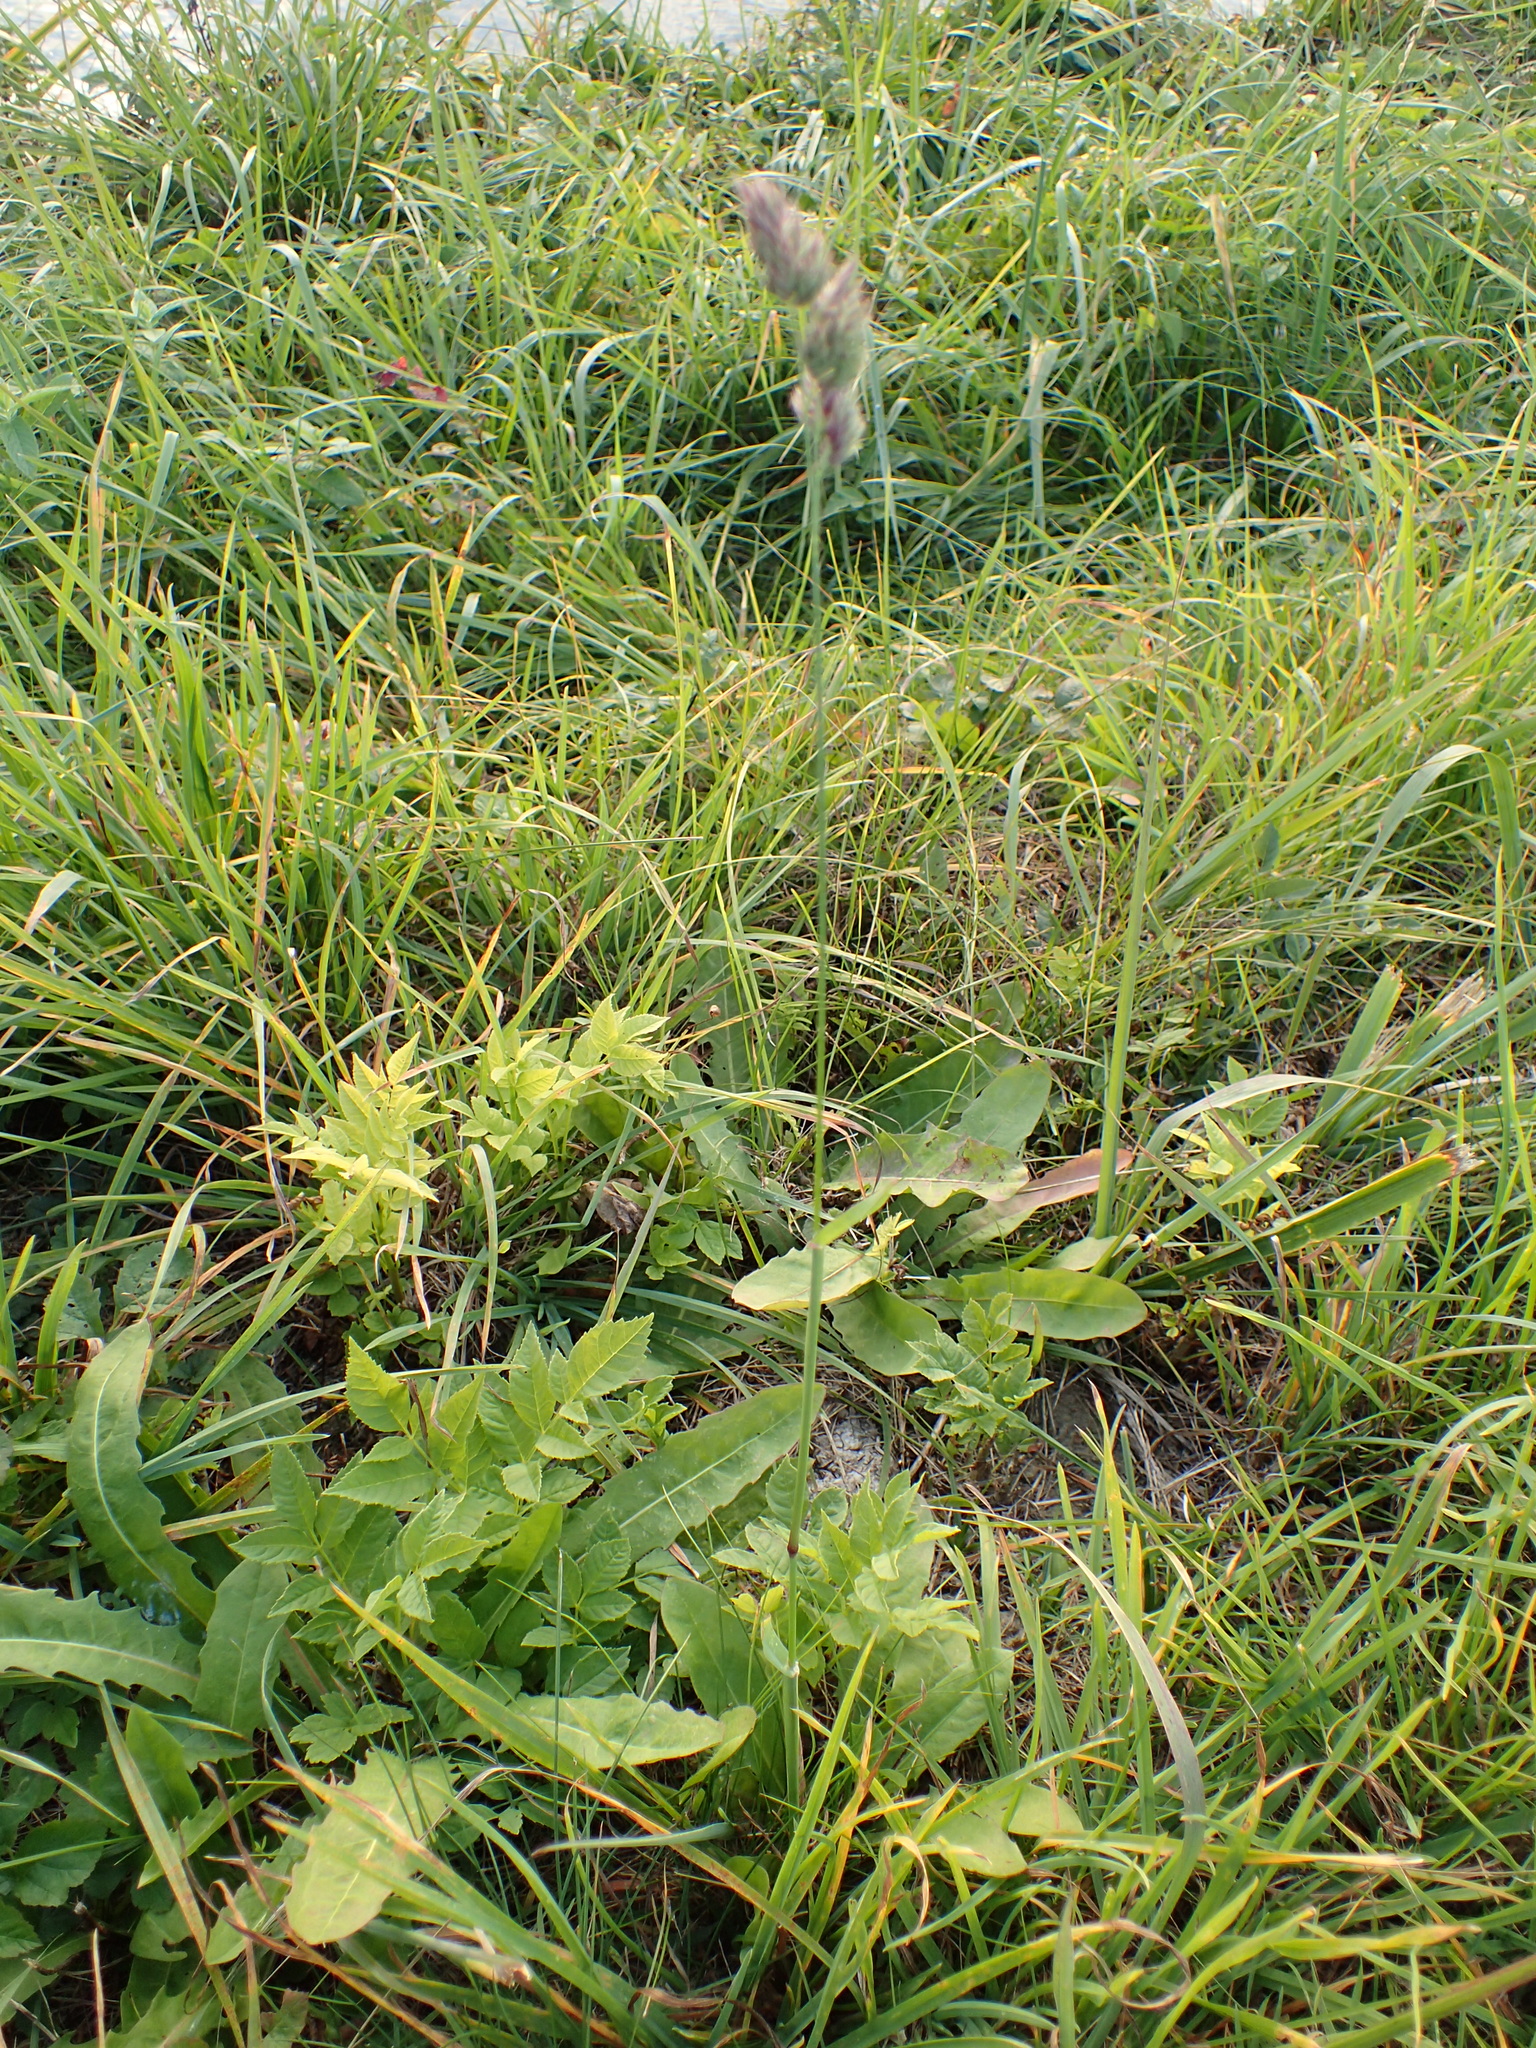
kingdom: Plantae
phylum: Tracheophyta
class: Liliopsida
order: Poales
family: Poaceae
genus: Dactylis
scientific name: Dactylis glomerata
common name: Orchardgrass
